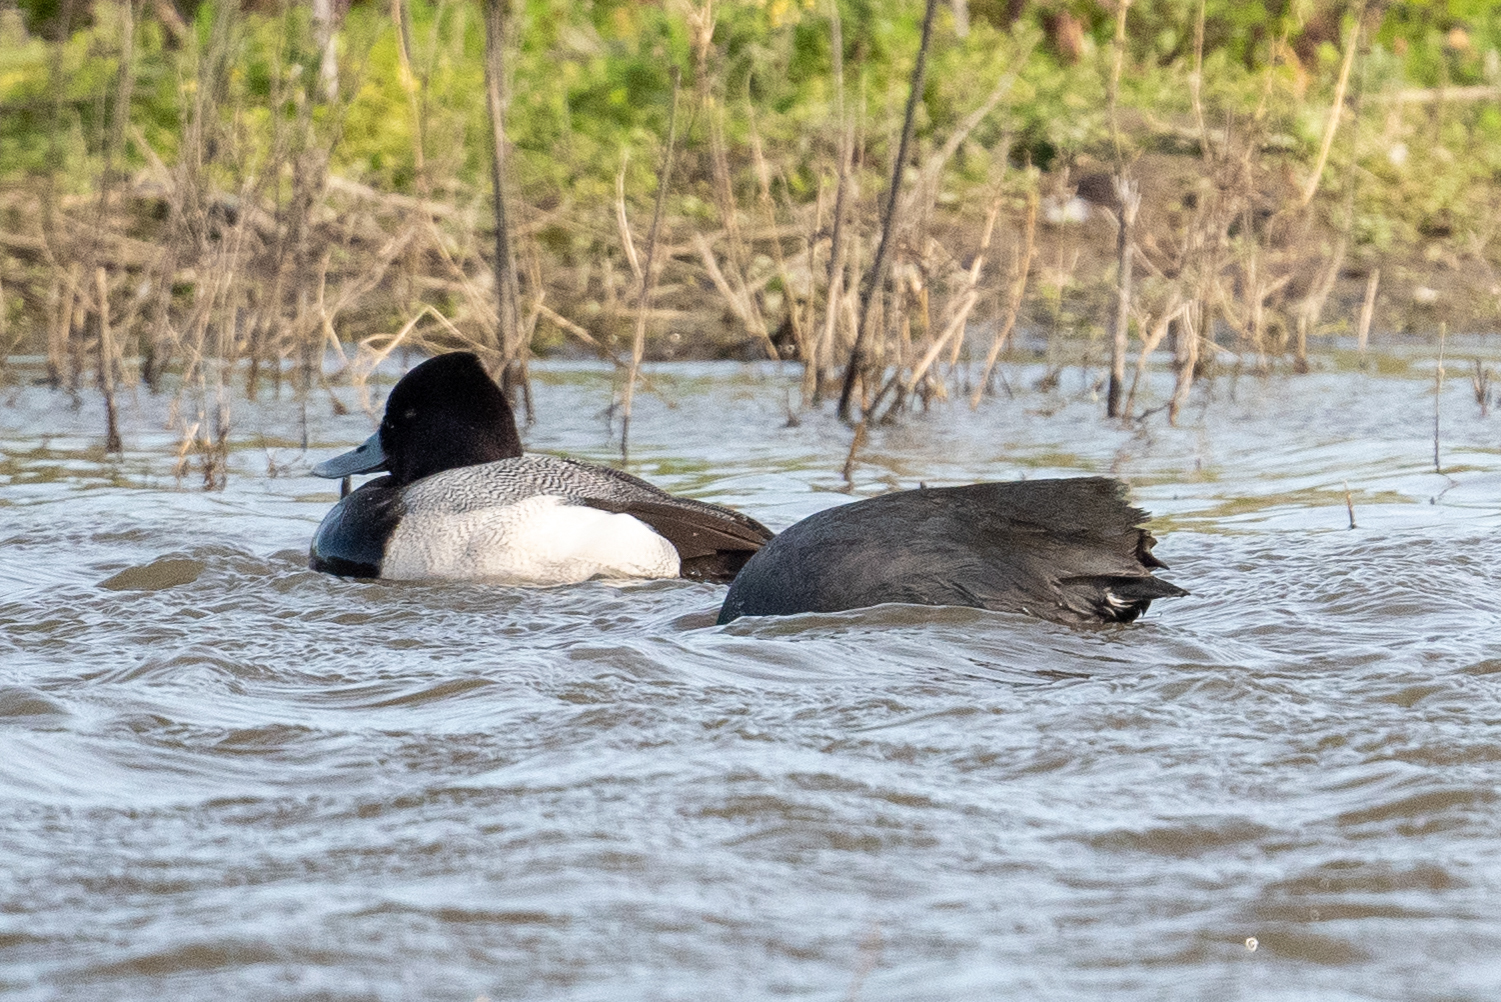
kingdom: Animalia
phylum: Chordata
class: Aves
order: Anseriformes
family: Anatidae
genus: Aythya
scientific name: Aythya affinis
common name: Lesser scaup
